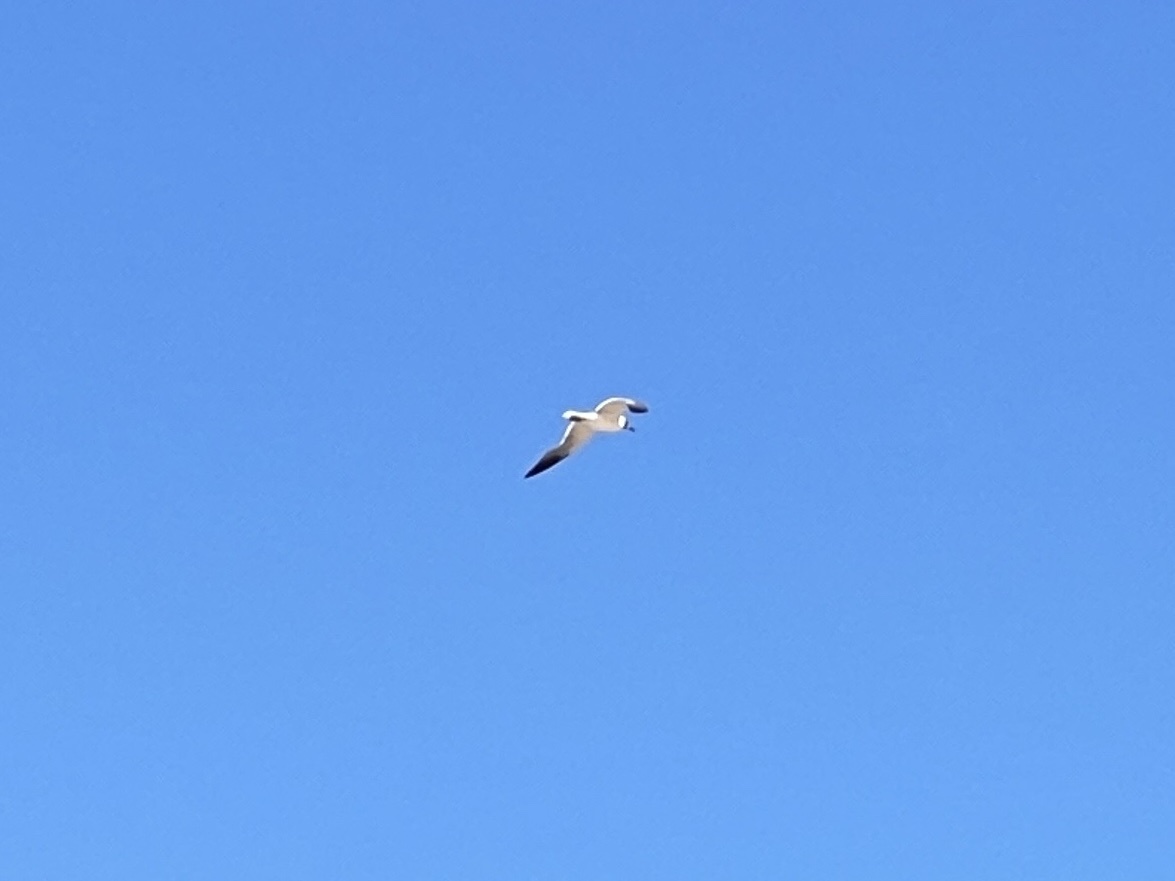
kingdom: Animalia
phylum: Chordata
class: Aves
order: Charadriiformes
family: Laridae
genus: Leucophaeus
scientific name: Leucophaeus atricilla
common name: Laughing gull
